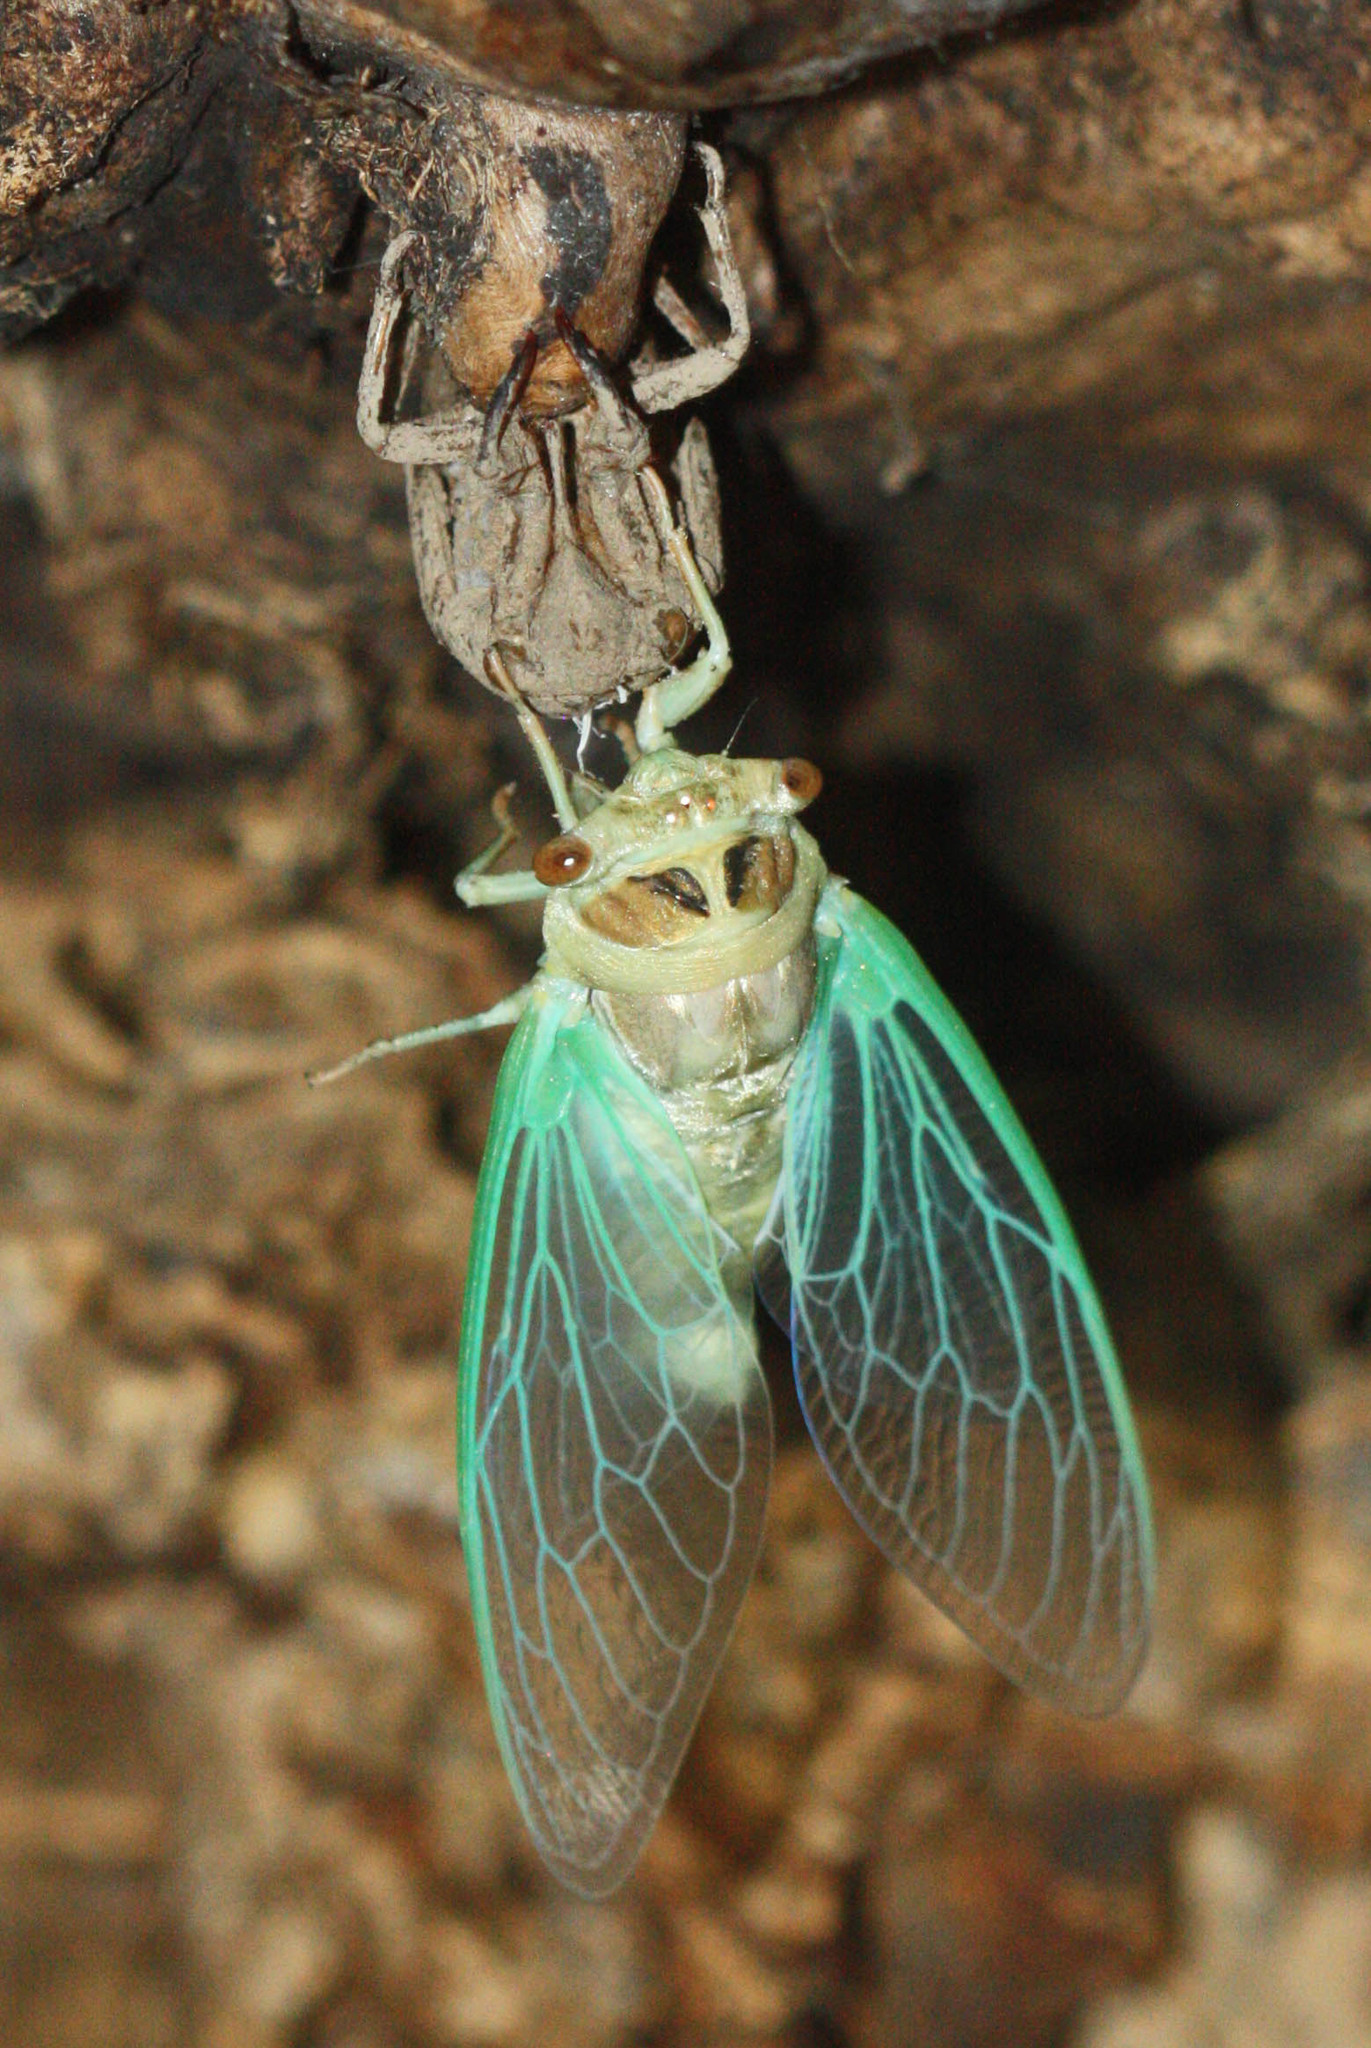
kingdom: Animalia
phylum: Arthropoda
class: Insecta
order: Hemiptera
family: Cicadidae
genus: Megatibicen
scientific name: Megatibicen cultriformis
